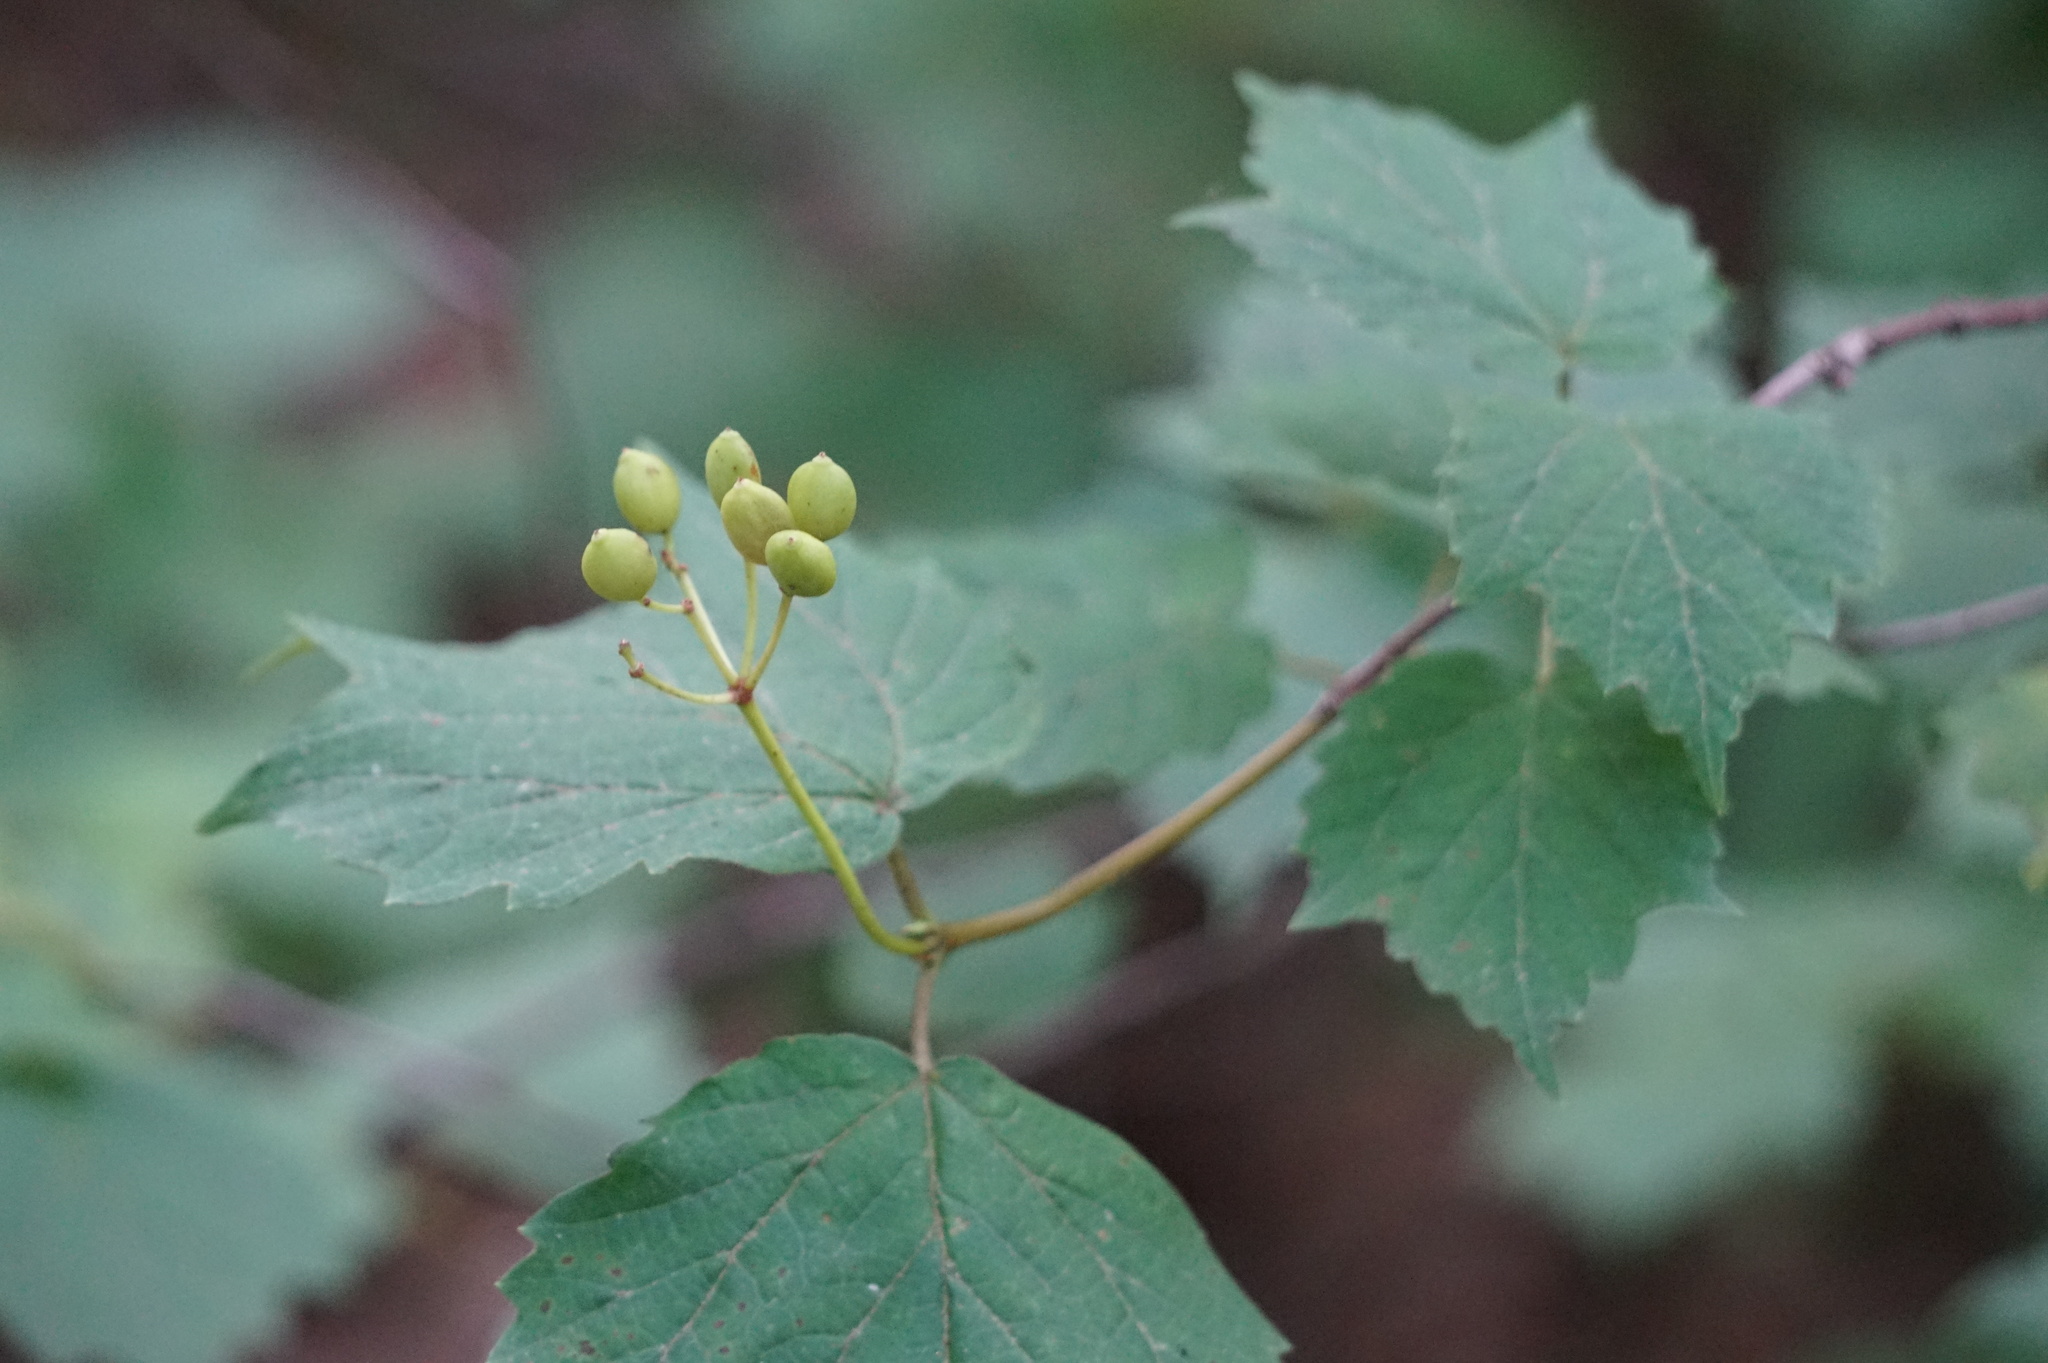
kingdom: Plantae
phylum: Tracheophyta
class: Magnoliopsida
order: Dipsacales
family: Viburnaceae
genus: Viburnum
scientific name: Viburnum acerifolium
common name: Dockmackie
